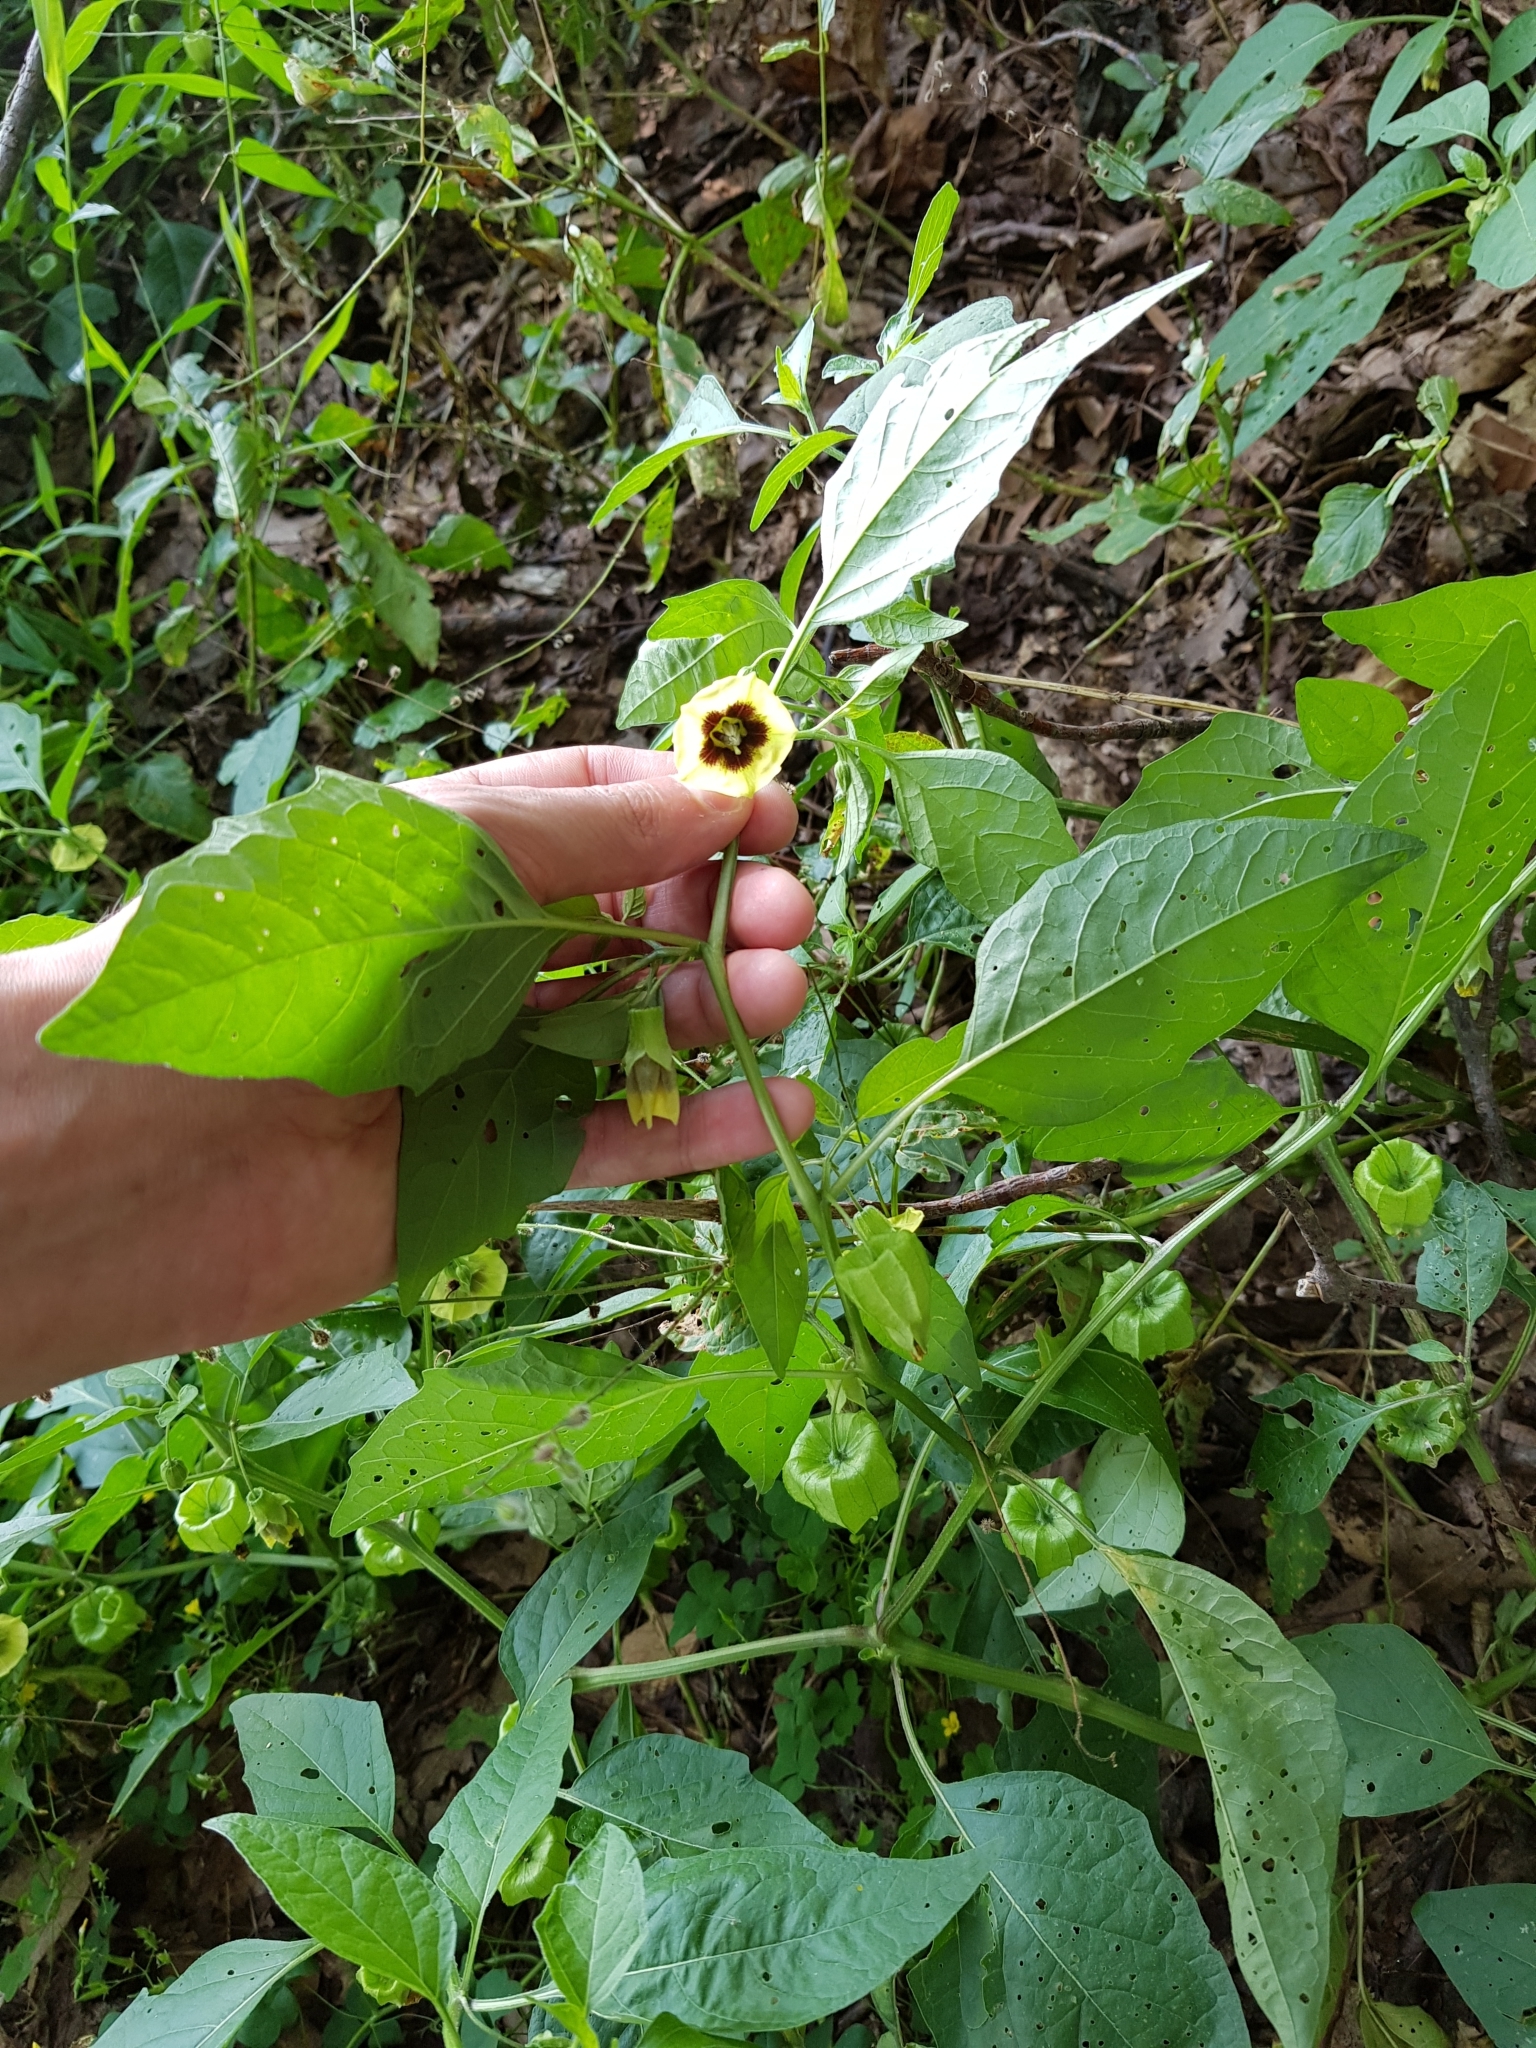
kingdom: Plantae
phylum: Tracheophyta
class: Magnoliopsida
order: Solanales
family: Solanaceae
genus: Physalis
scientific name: Physalis longifolia
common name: Common ground-cherry
